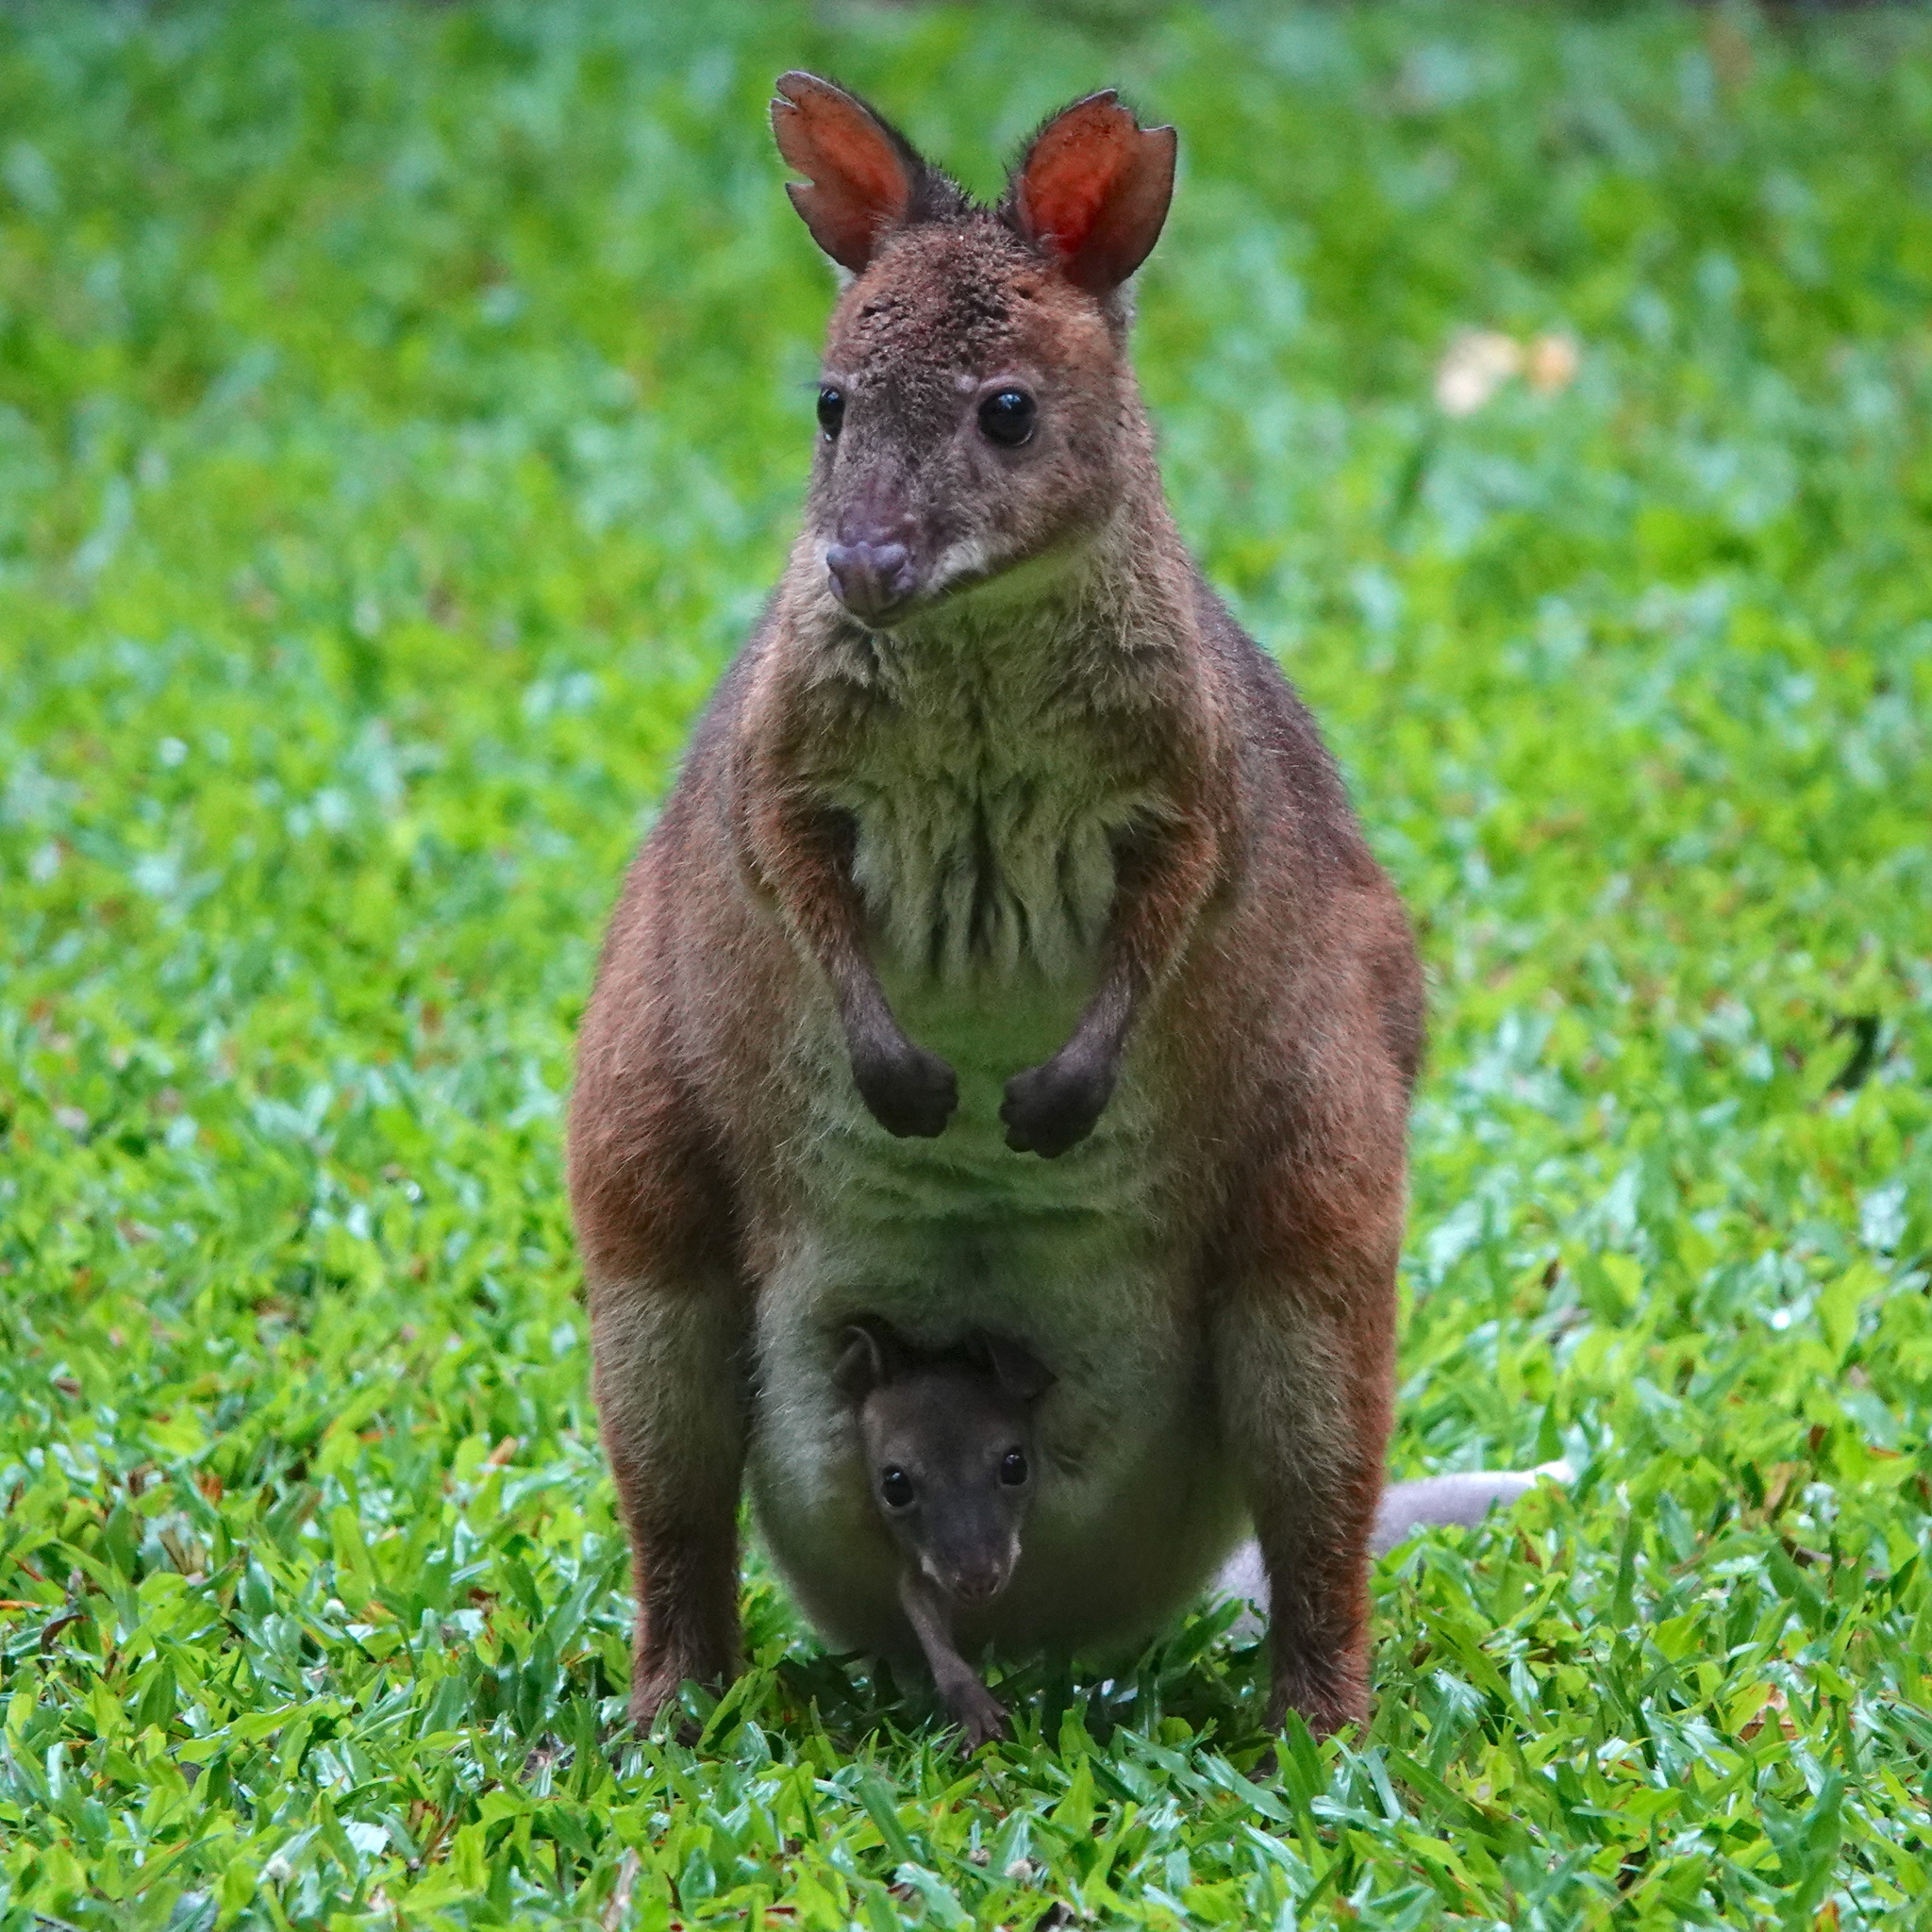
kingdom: Animalia
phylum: Chordata
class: Mammalia
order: Diprotodontia
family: Macropodidae
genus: Thylogale
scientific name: Thylogale stigmatica
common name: Red-legged pademelon
